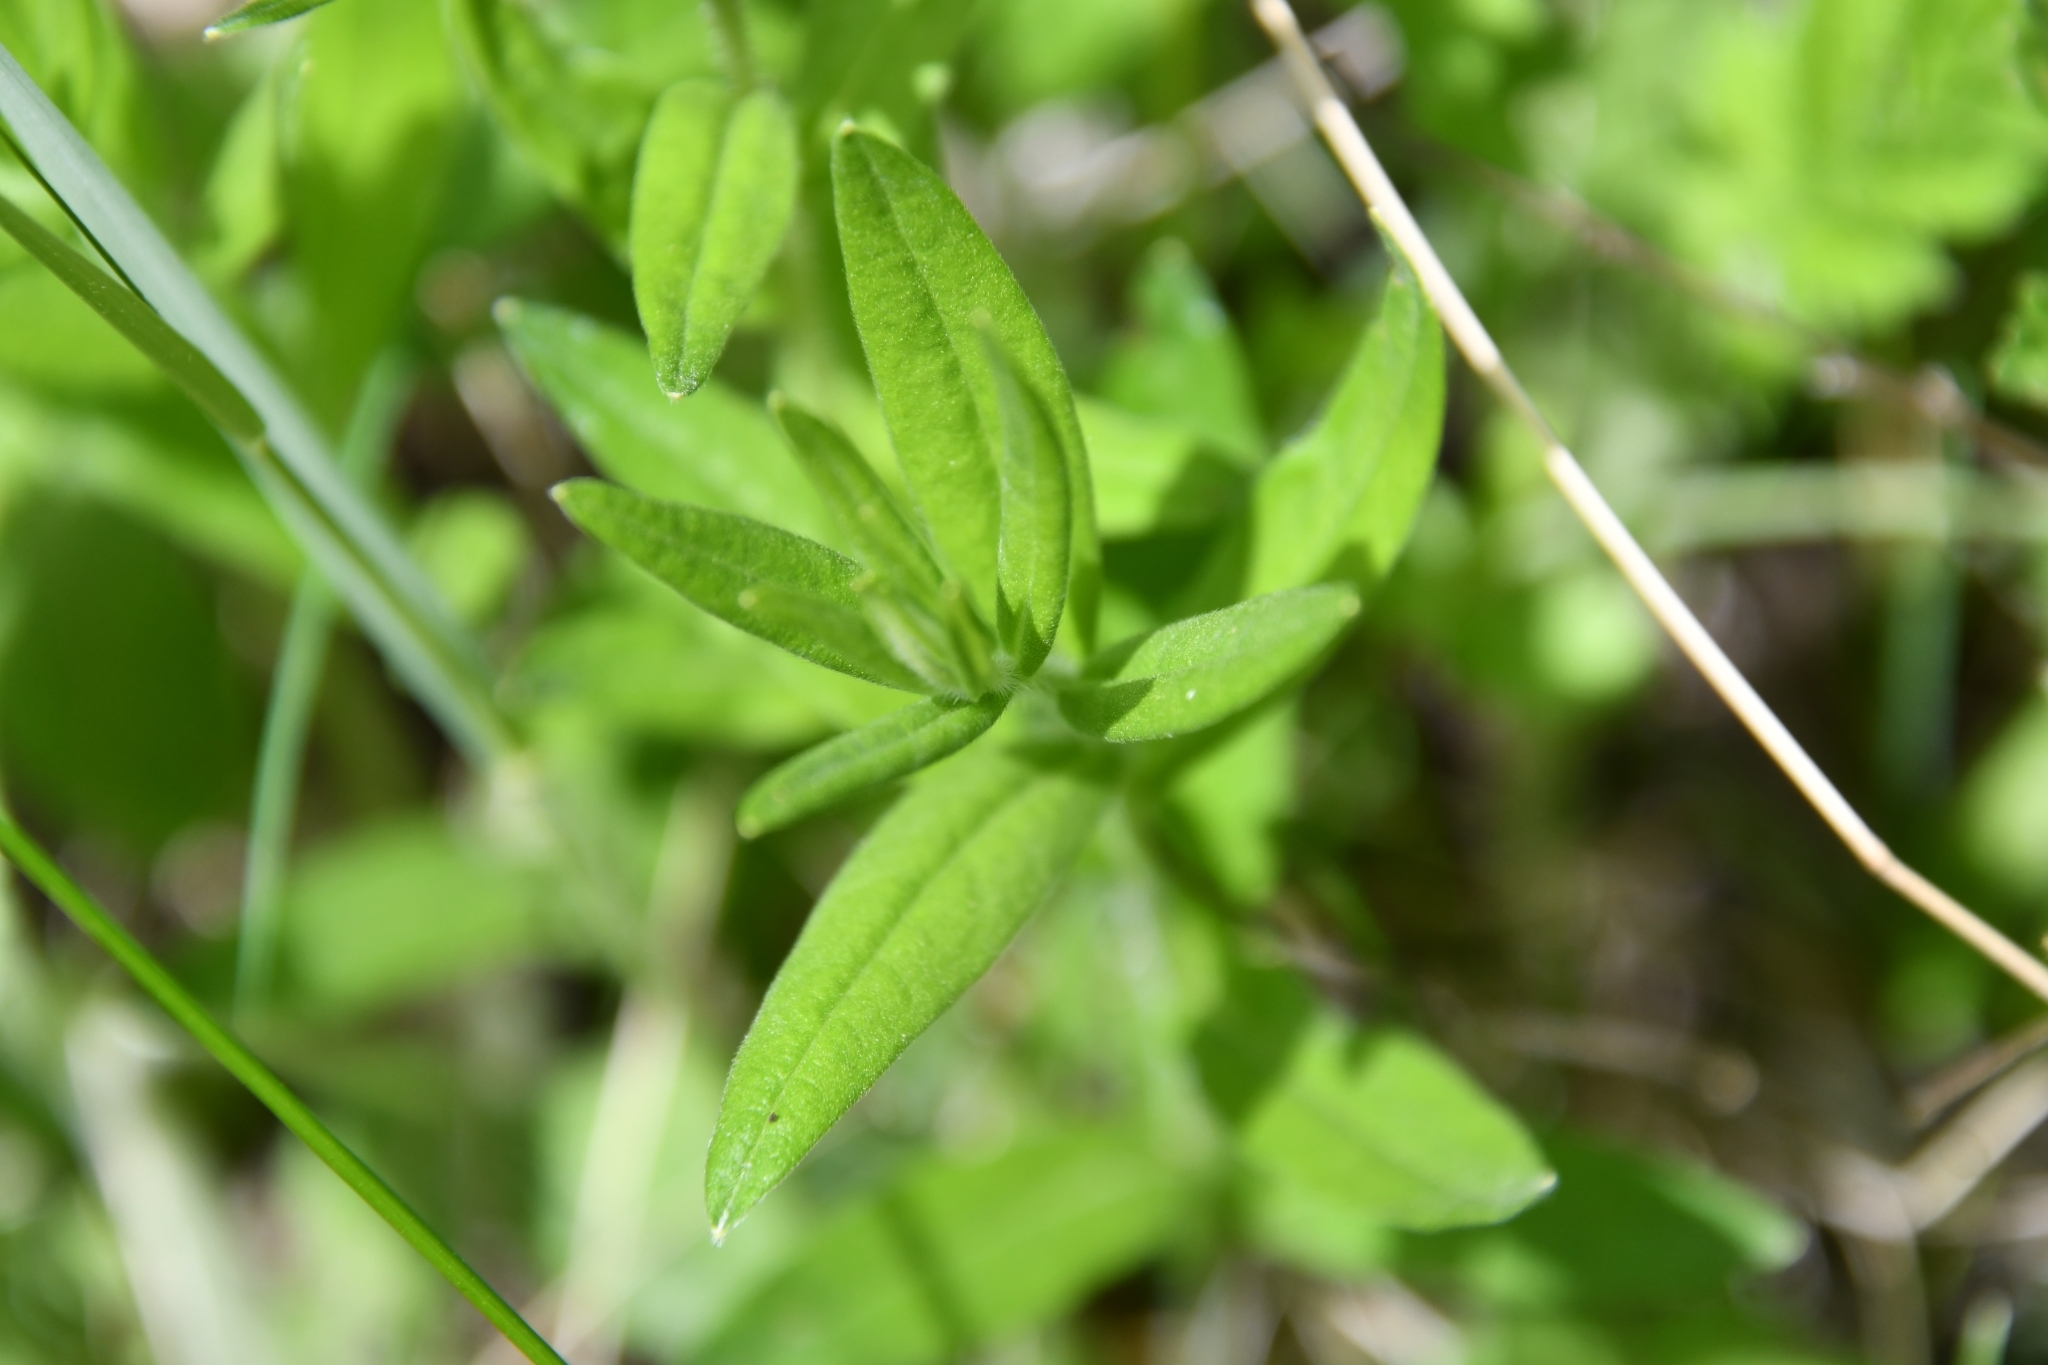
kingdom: Plantae
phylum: Tracheophyta
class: Magnoliopsida
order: Boraginales
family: Boraginaceae
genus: Aegonychon
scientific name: Aegonychon purpurocaeruleum
